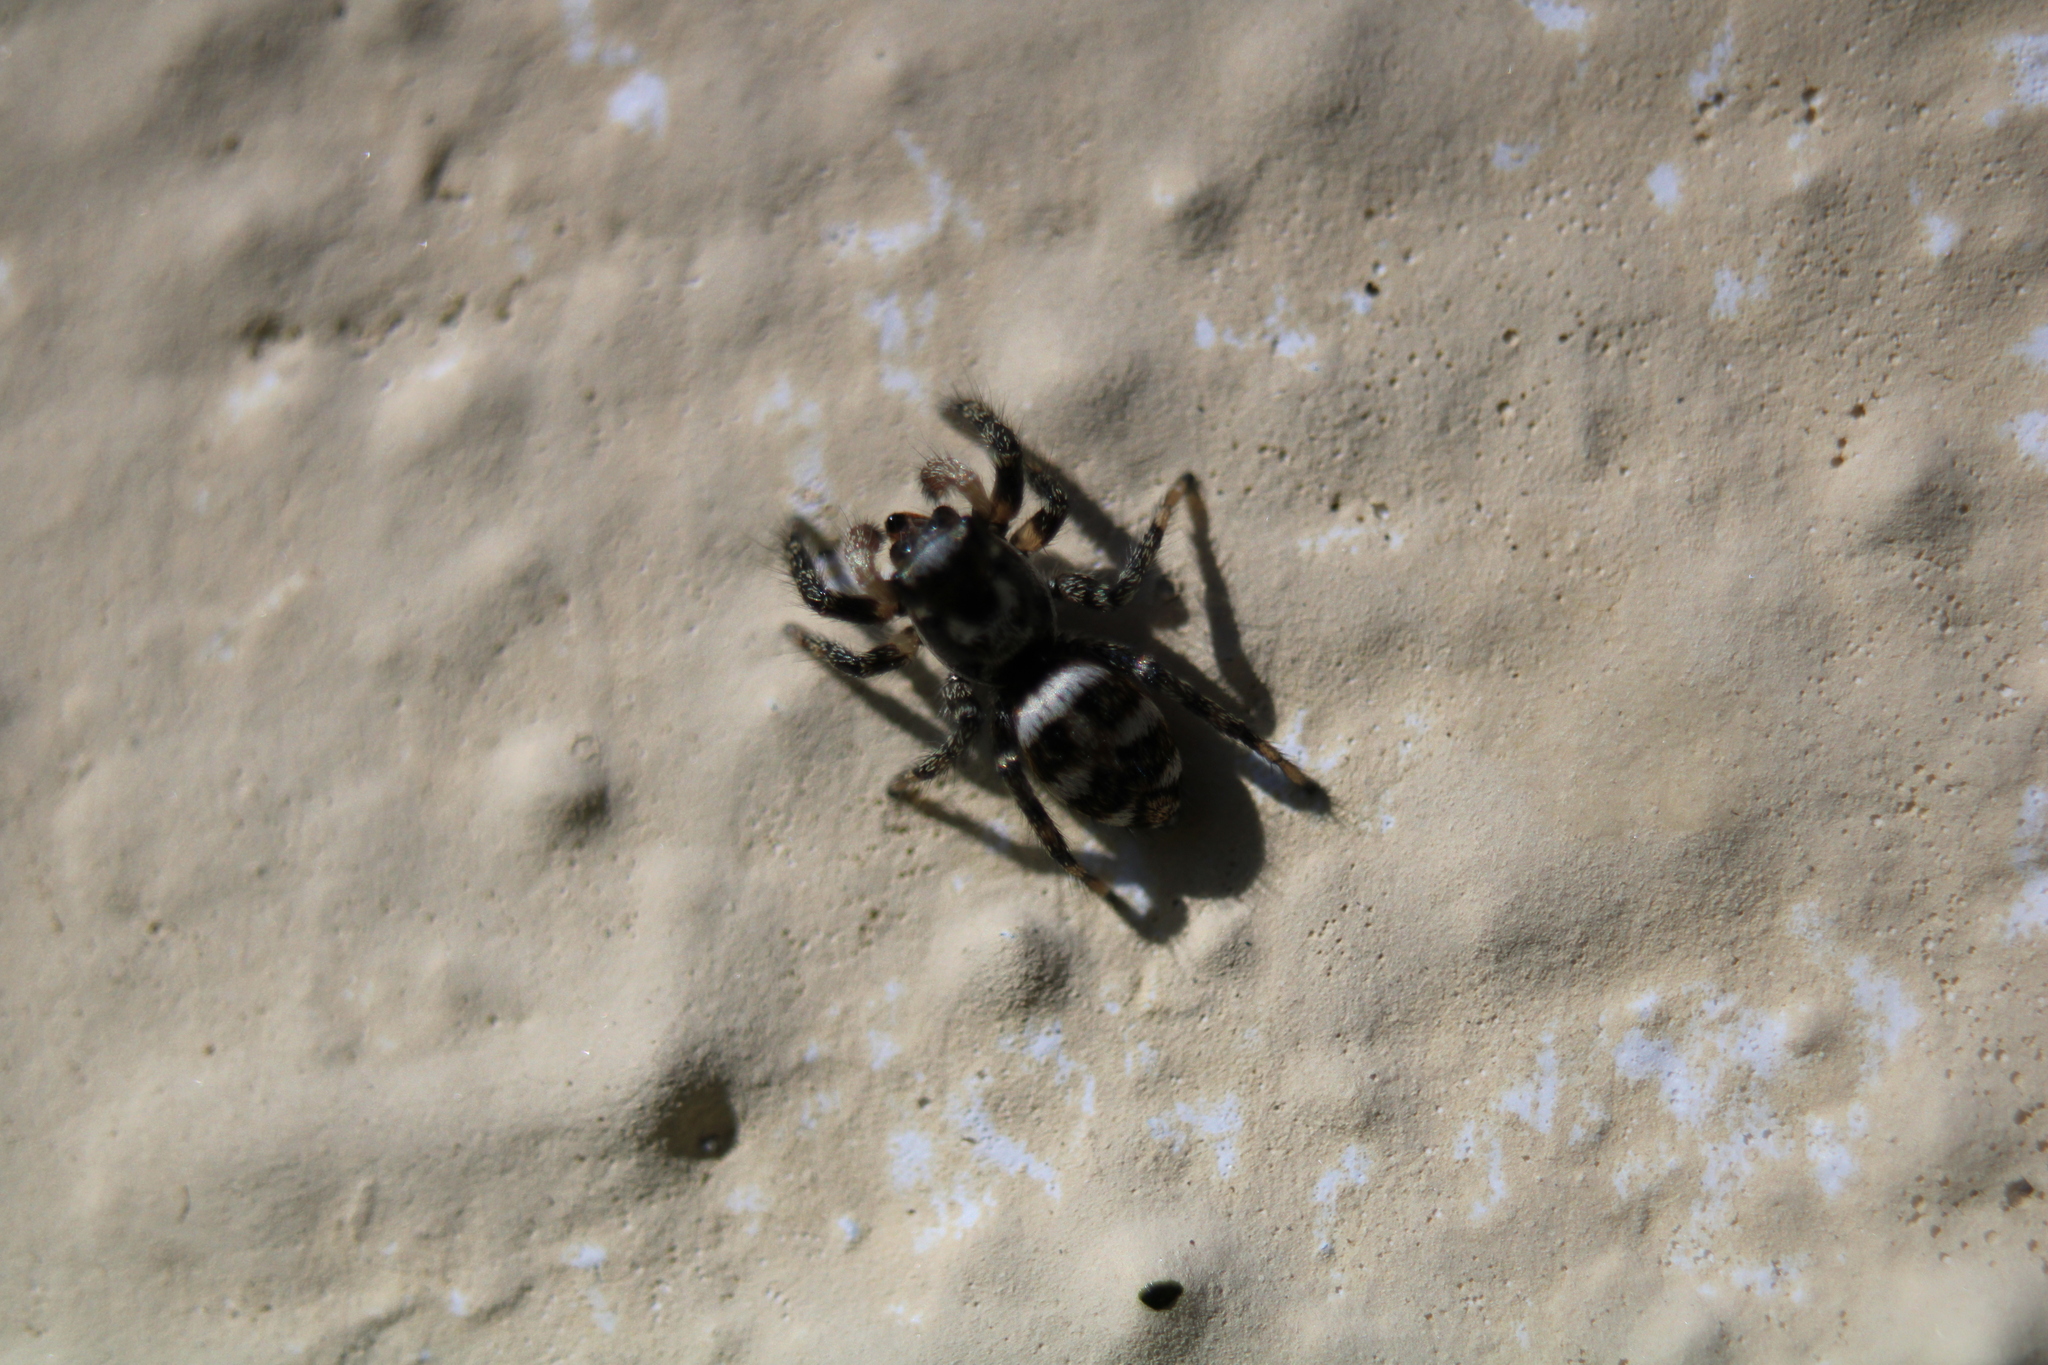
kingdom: Animalia
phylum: Arthropoda
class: Arachnida
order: Araneae
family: Salticidae
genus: Salticus
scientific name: Salticus scenicus
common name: Zebra jumper
